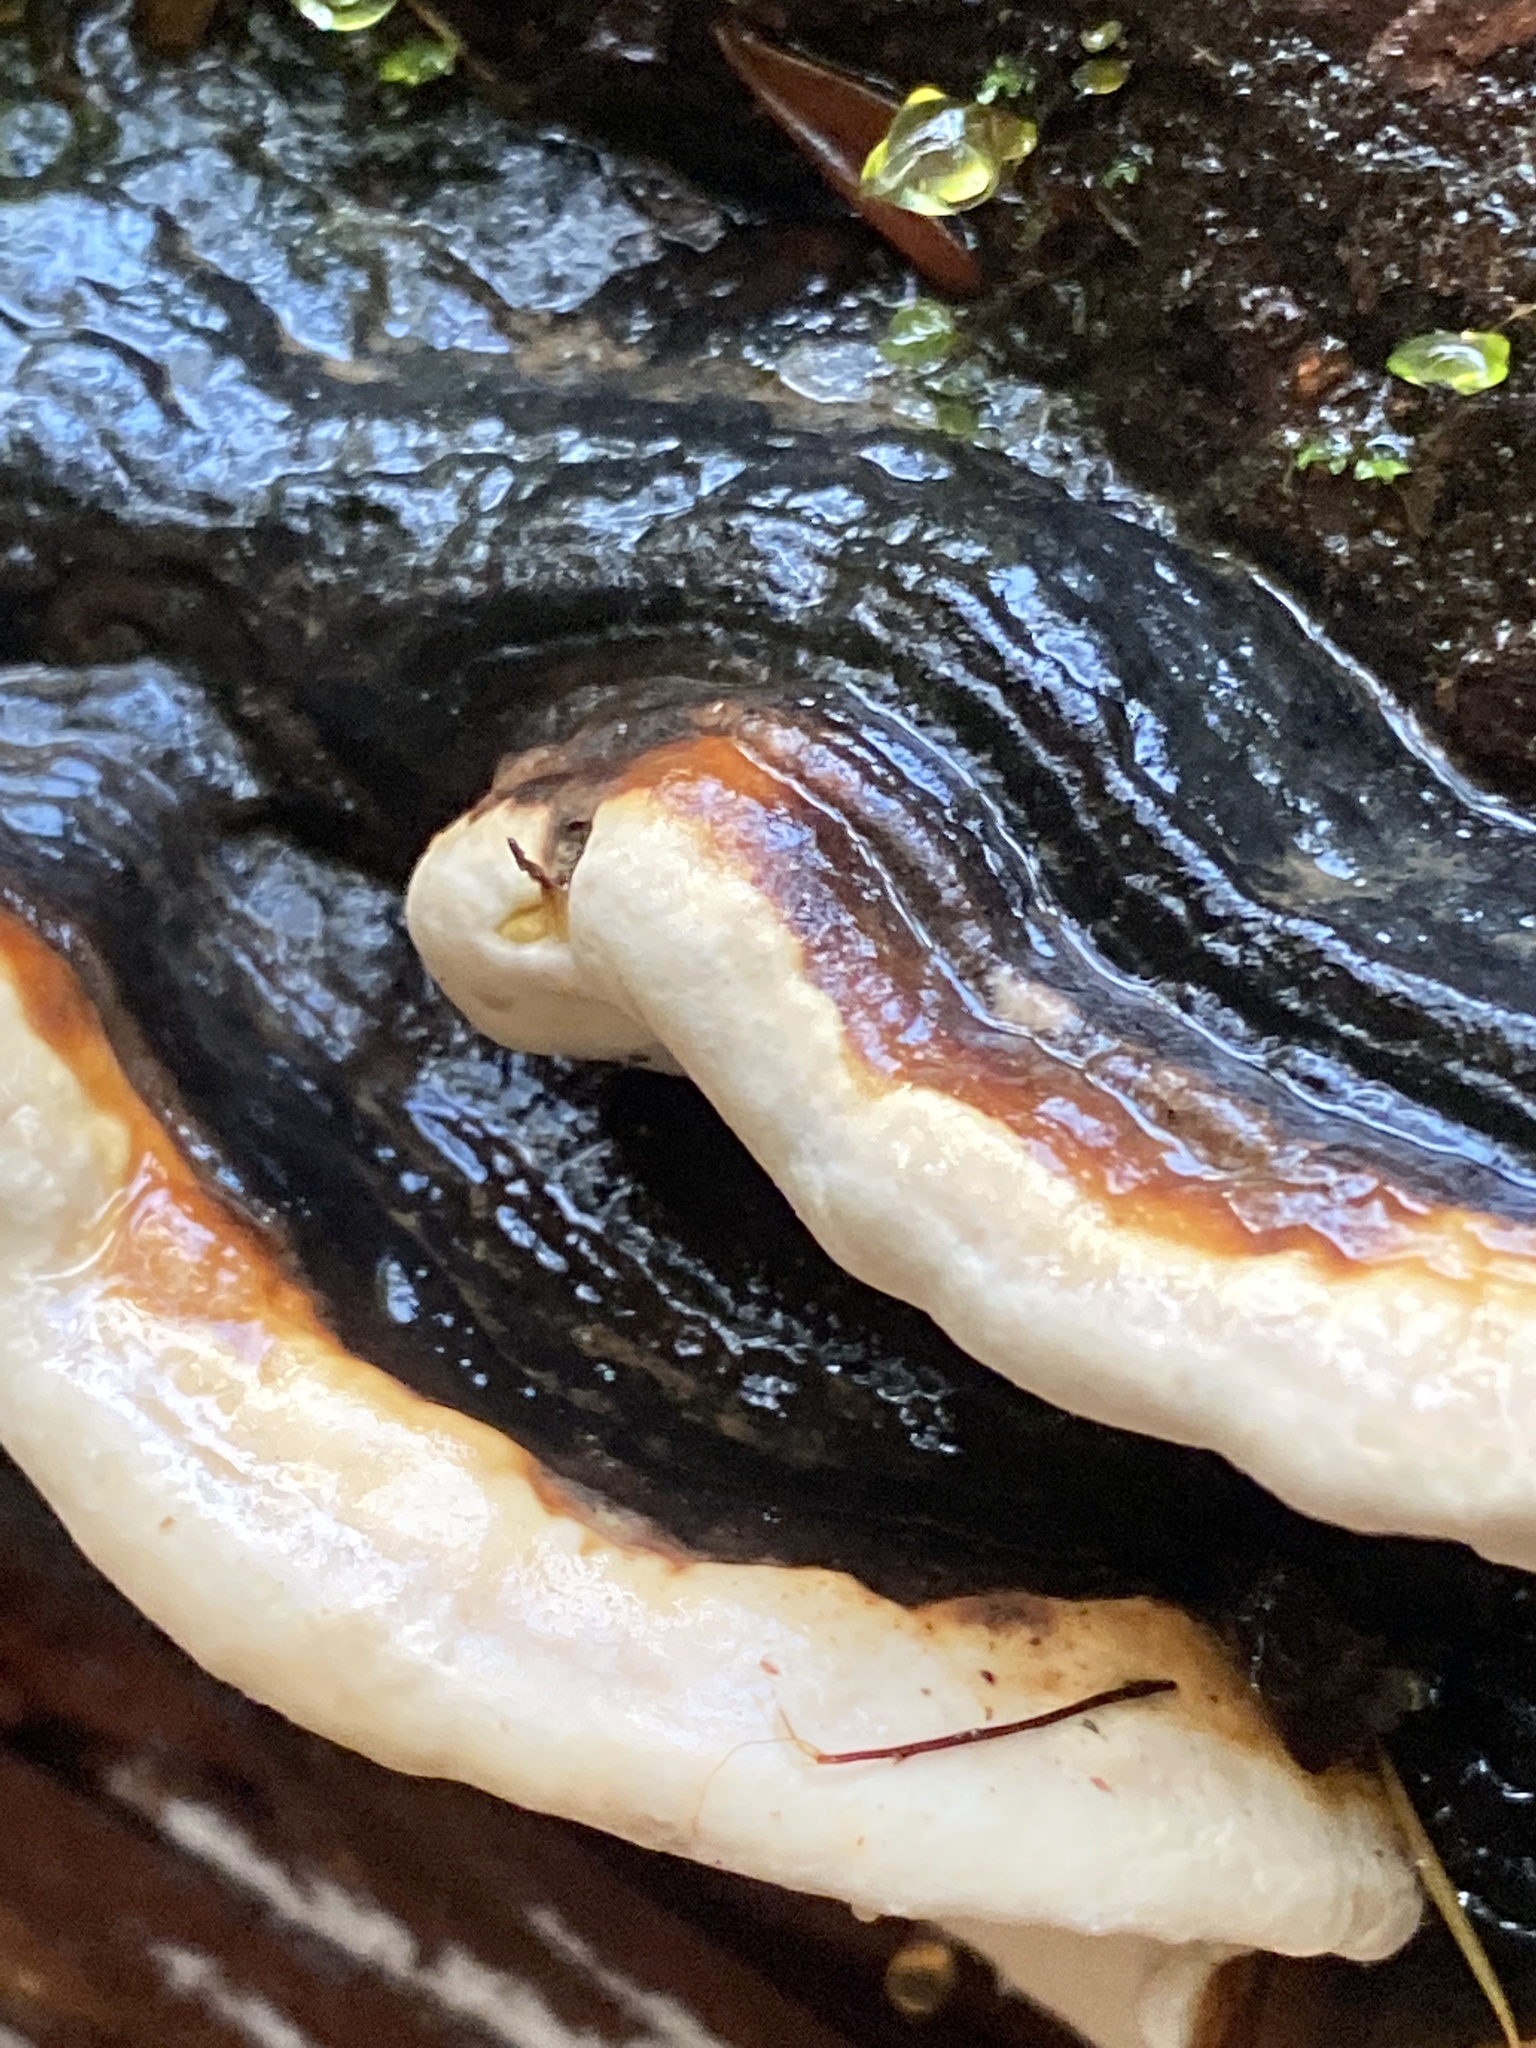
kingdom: Fungi
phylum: Basidiomycota
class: Agaricomycetes
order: Polyporales
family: Fomitopsidaceae
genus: Fomitopsis
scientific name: Fomitopsis mounceae
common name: Northern red belt
